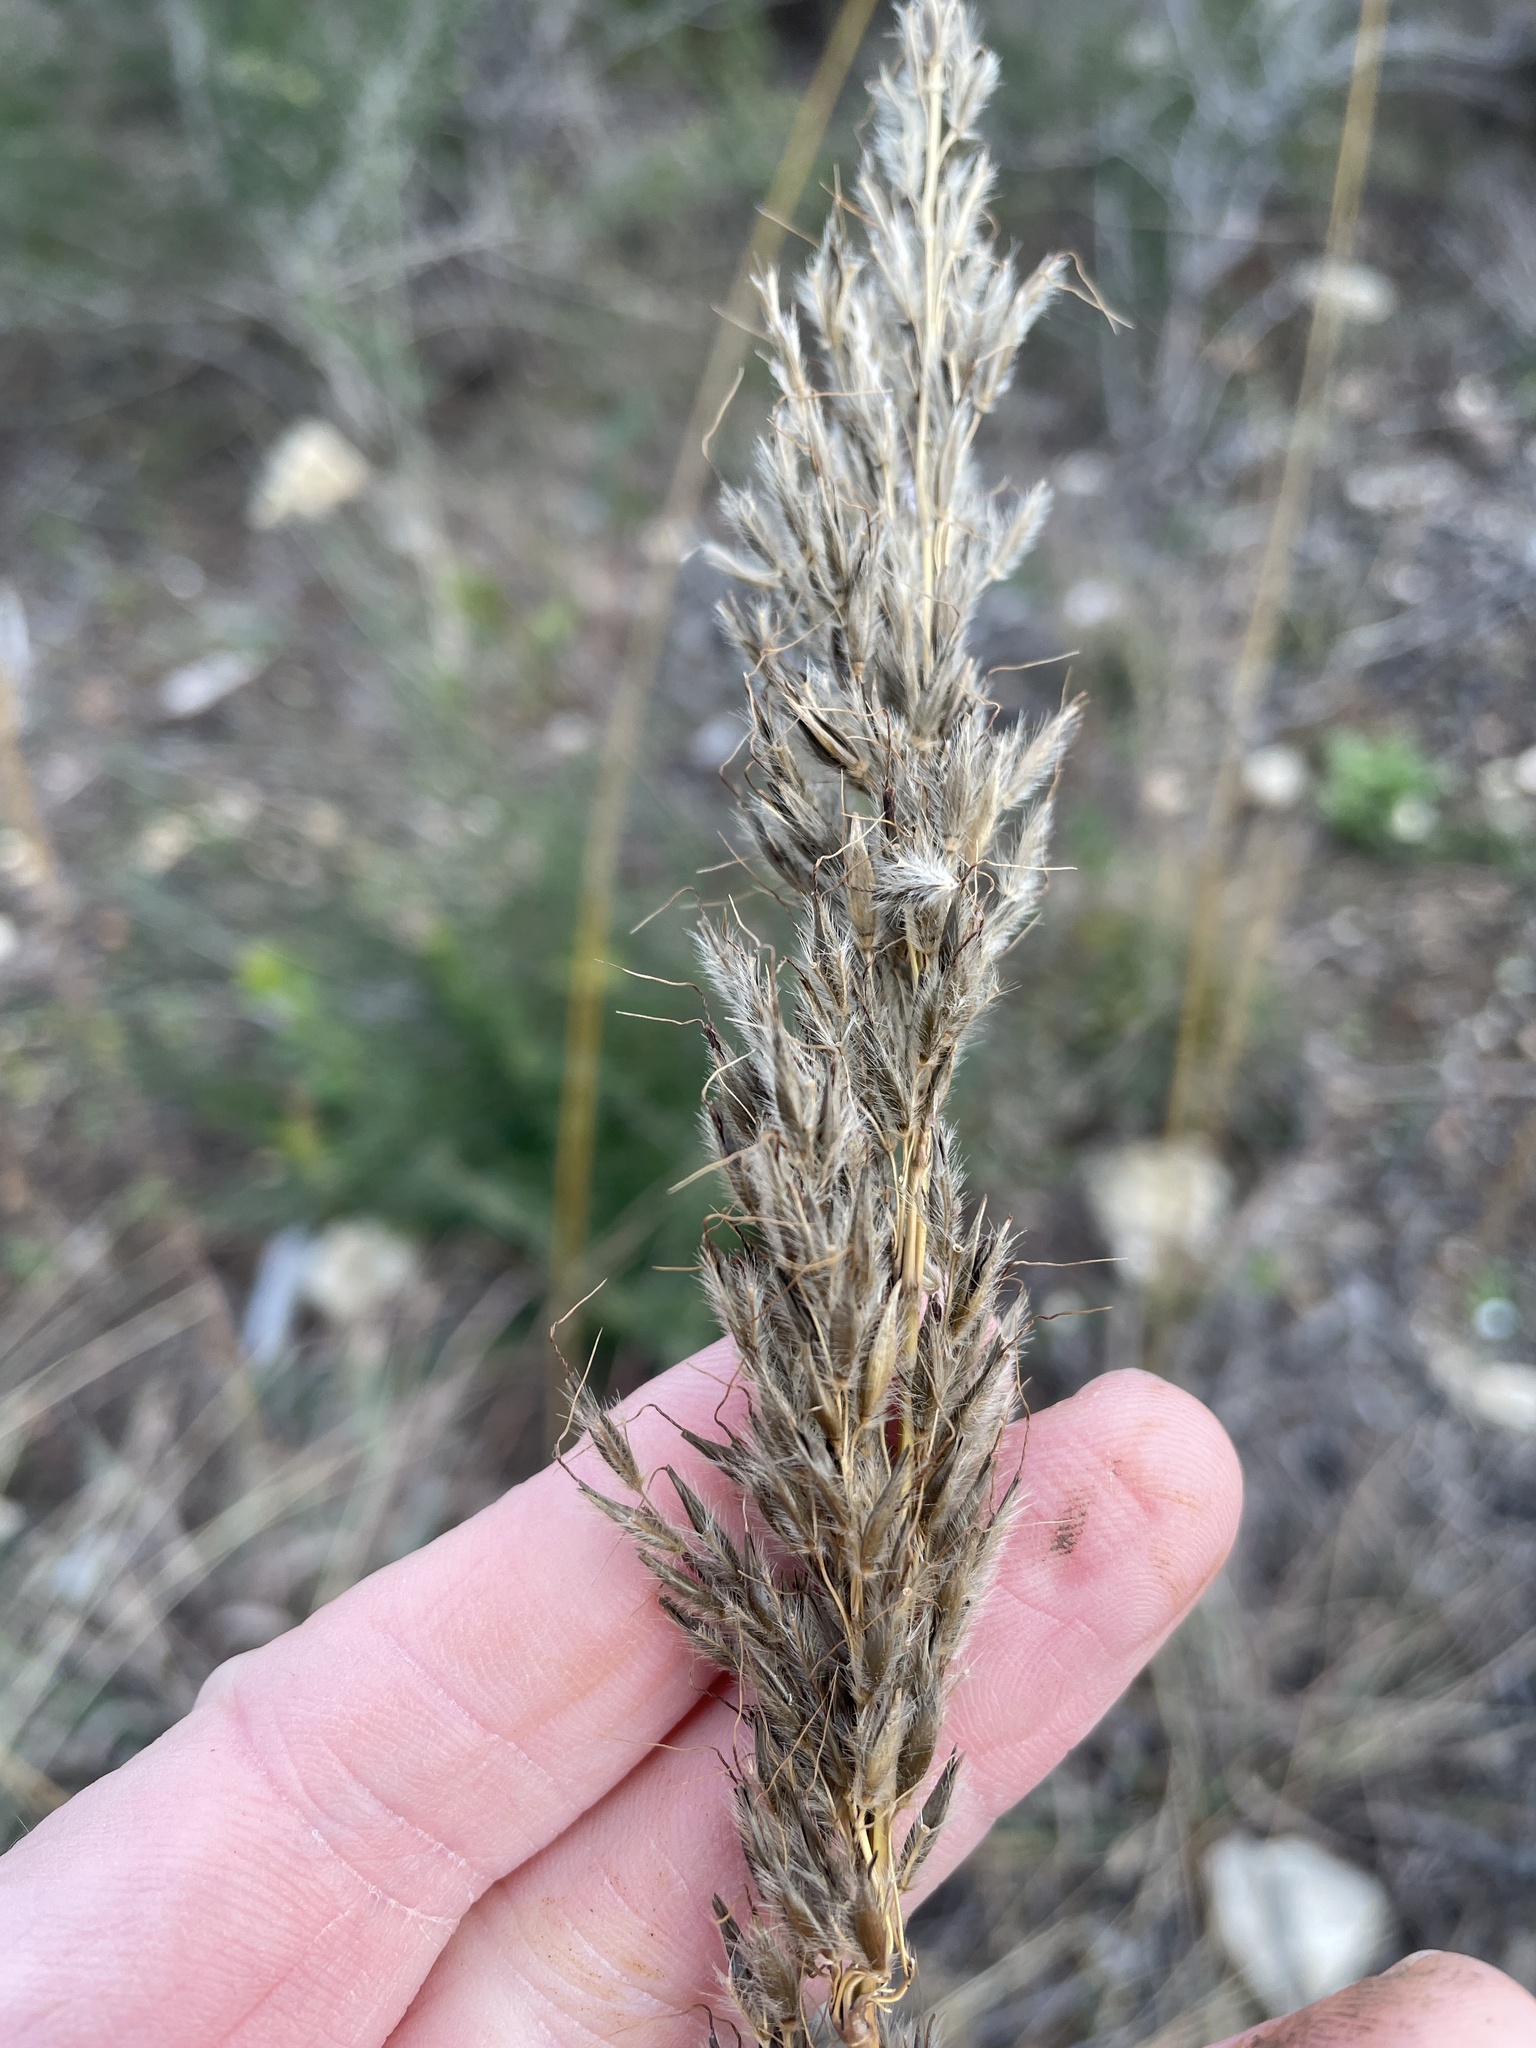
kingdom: Plantae
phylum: Tracheophyta
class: Liliopsida
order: Poales
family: Poaceae
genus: Sorghastrum
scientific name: Sorghastrum nutans
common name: Indian grass
